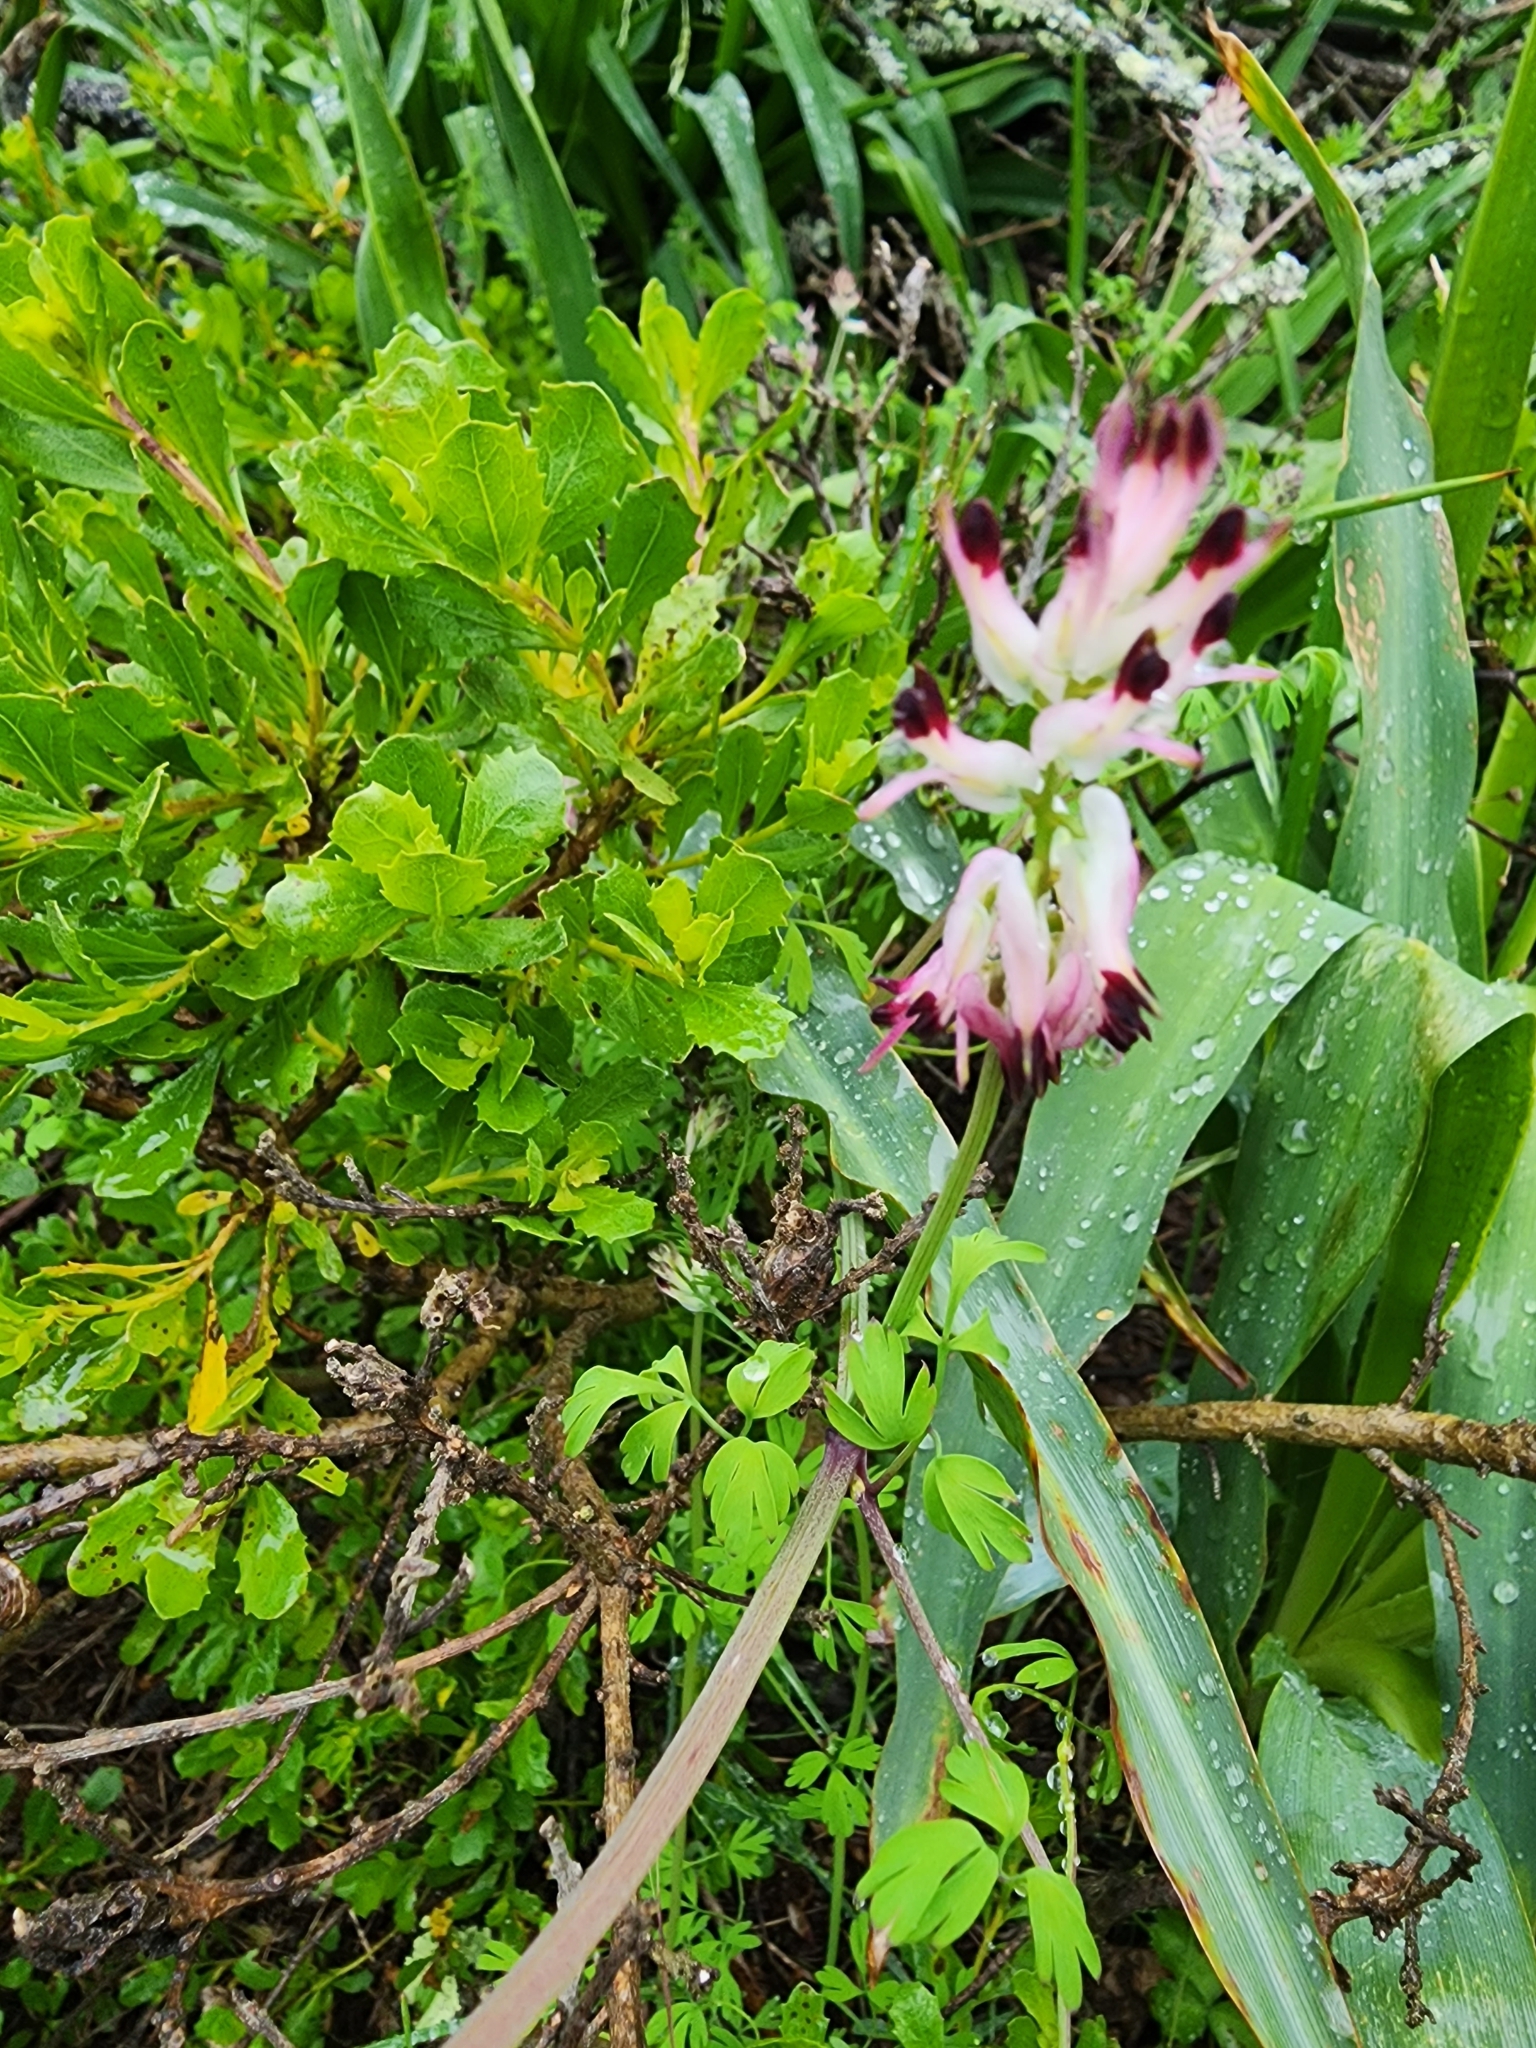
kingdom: Plantae
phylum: Tracheophyta
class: Magnoliopsida
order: Ranunculales
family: Papaveraceae
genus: Fumaria
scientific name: Fumaria capreolata
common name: White ramping-fumitory
